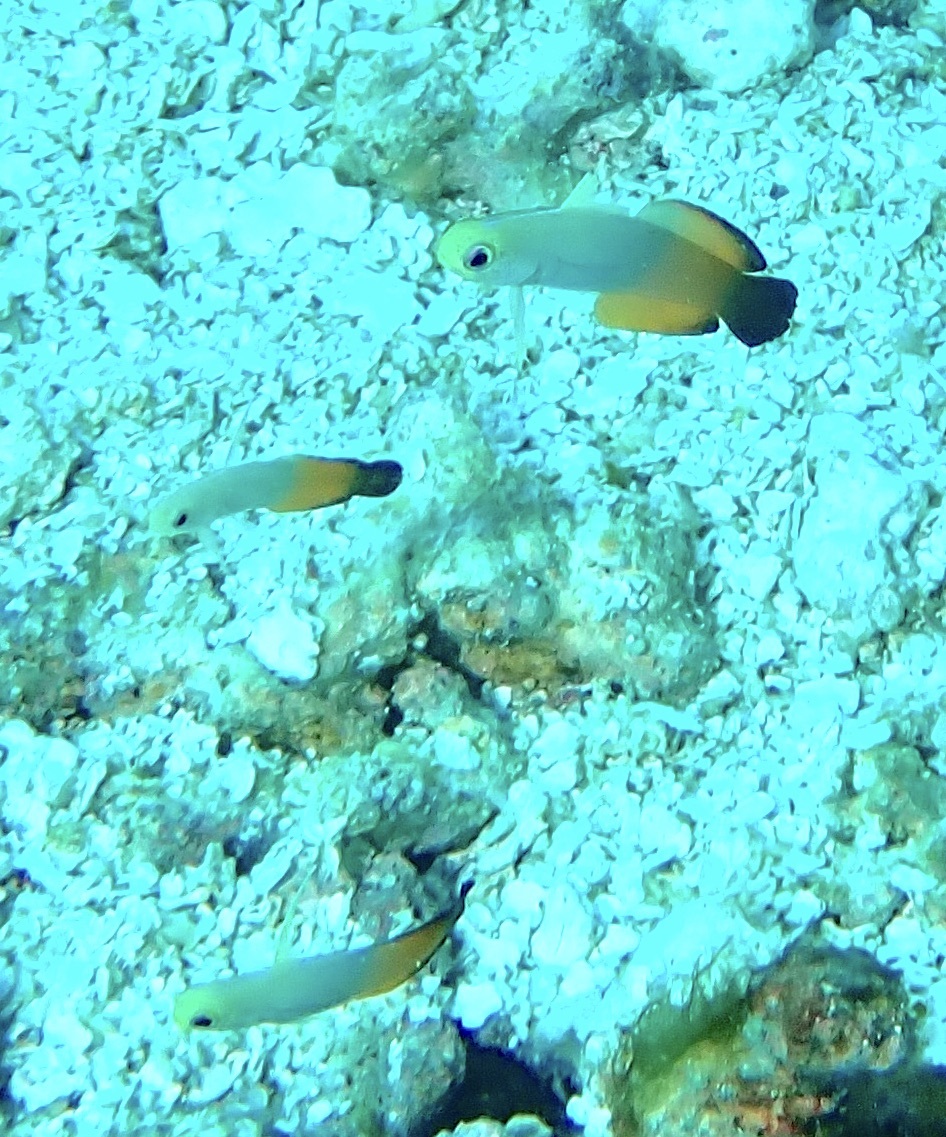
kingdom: Animalia
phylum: Chordata
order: Perciformes
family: Microdesmidae
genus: Nemateleotris
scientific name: Nemateleotris magnifica
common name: Fire goby
